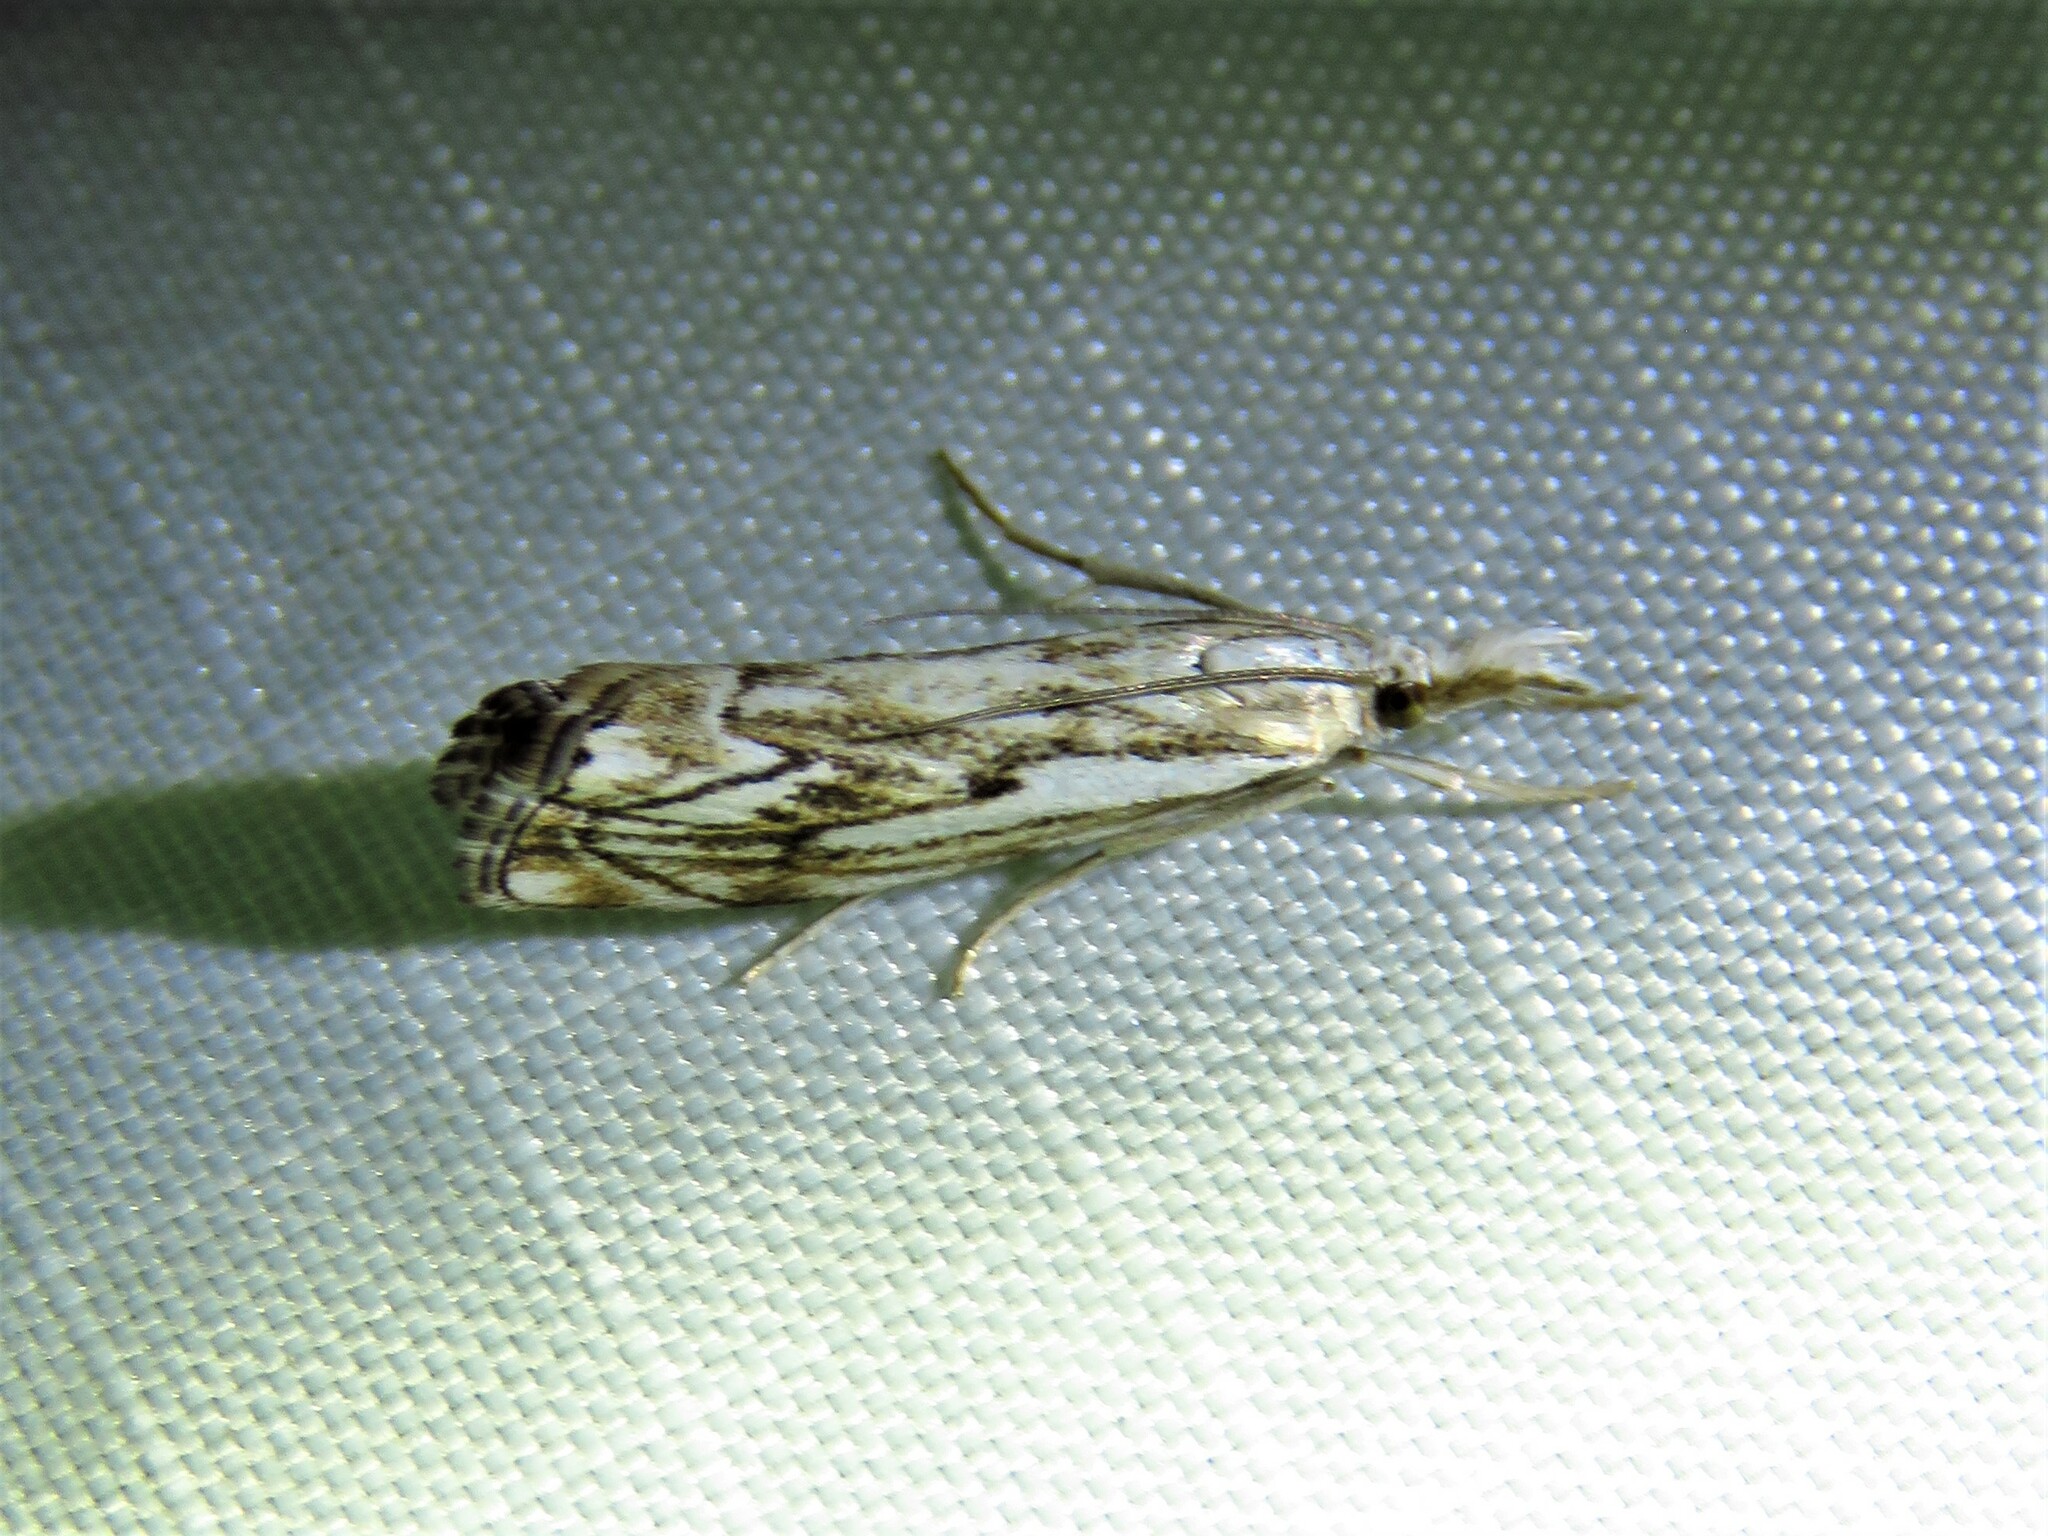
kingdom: Animalia
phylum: Arthropoda
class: Insecta
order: Lepidoptera
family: Crambidae
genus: Catoptria
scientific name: Catoptria falsella
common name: Chequered grass-veneer
